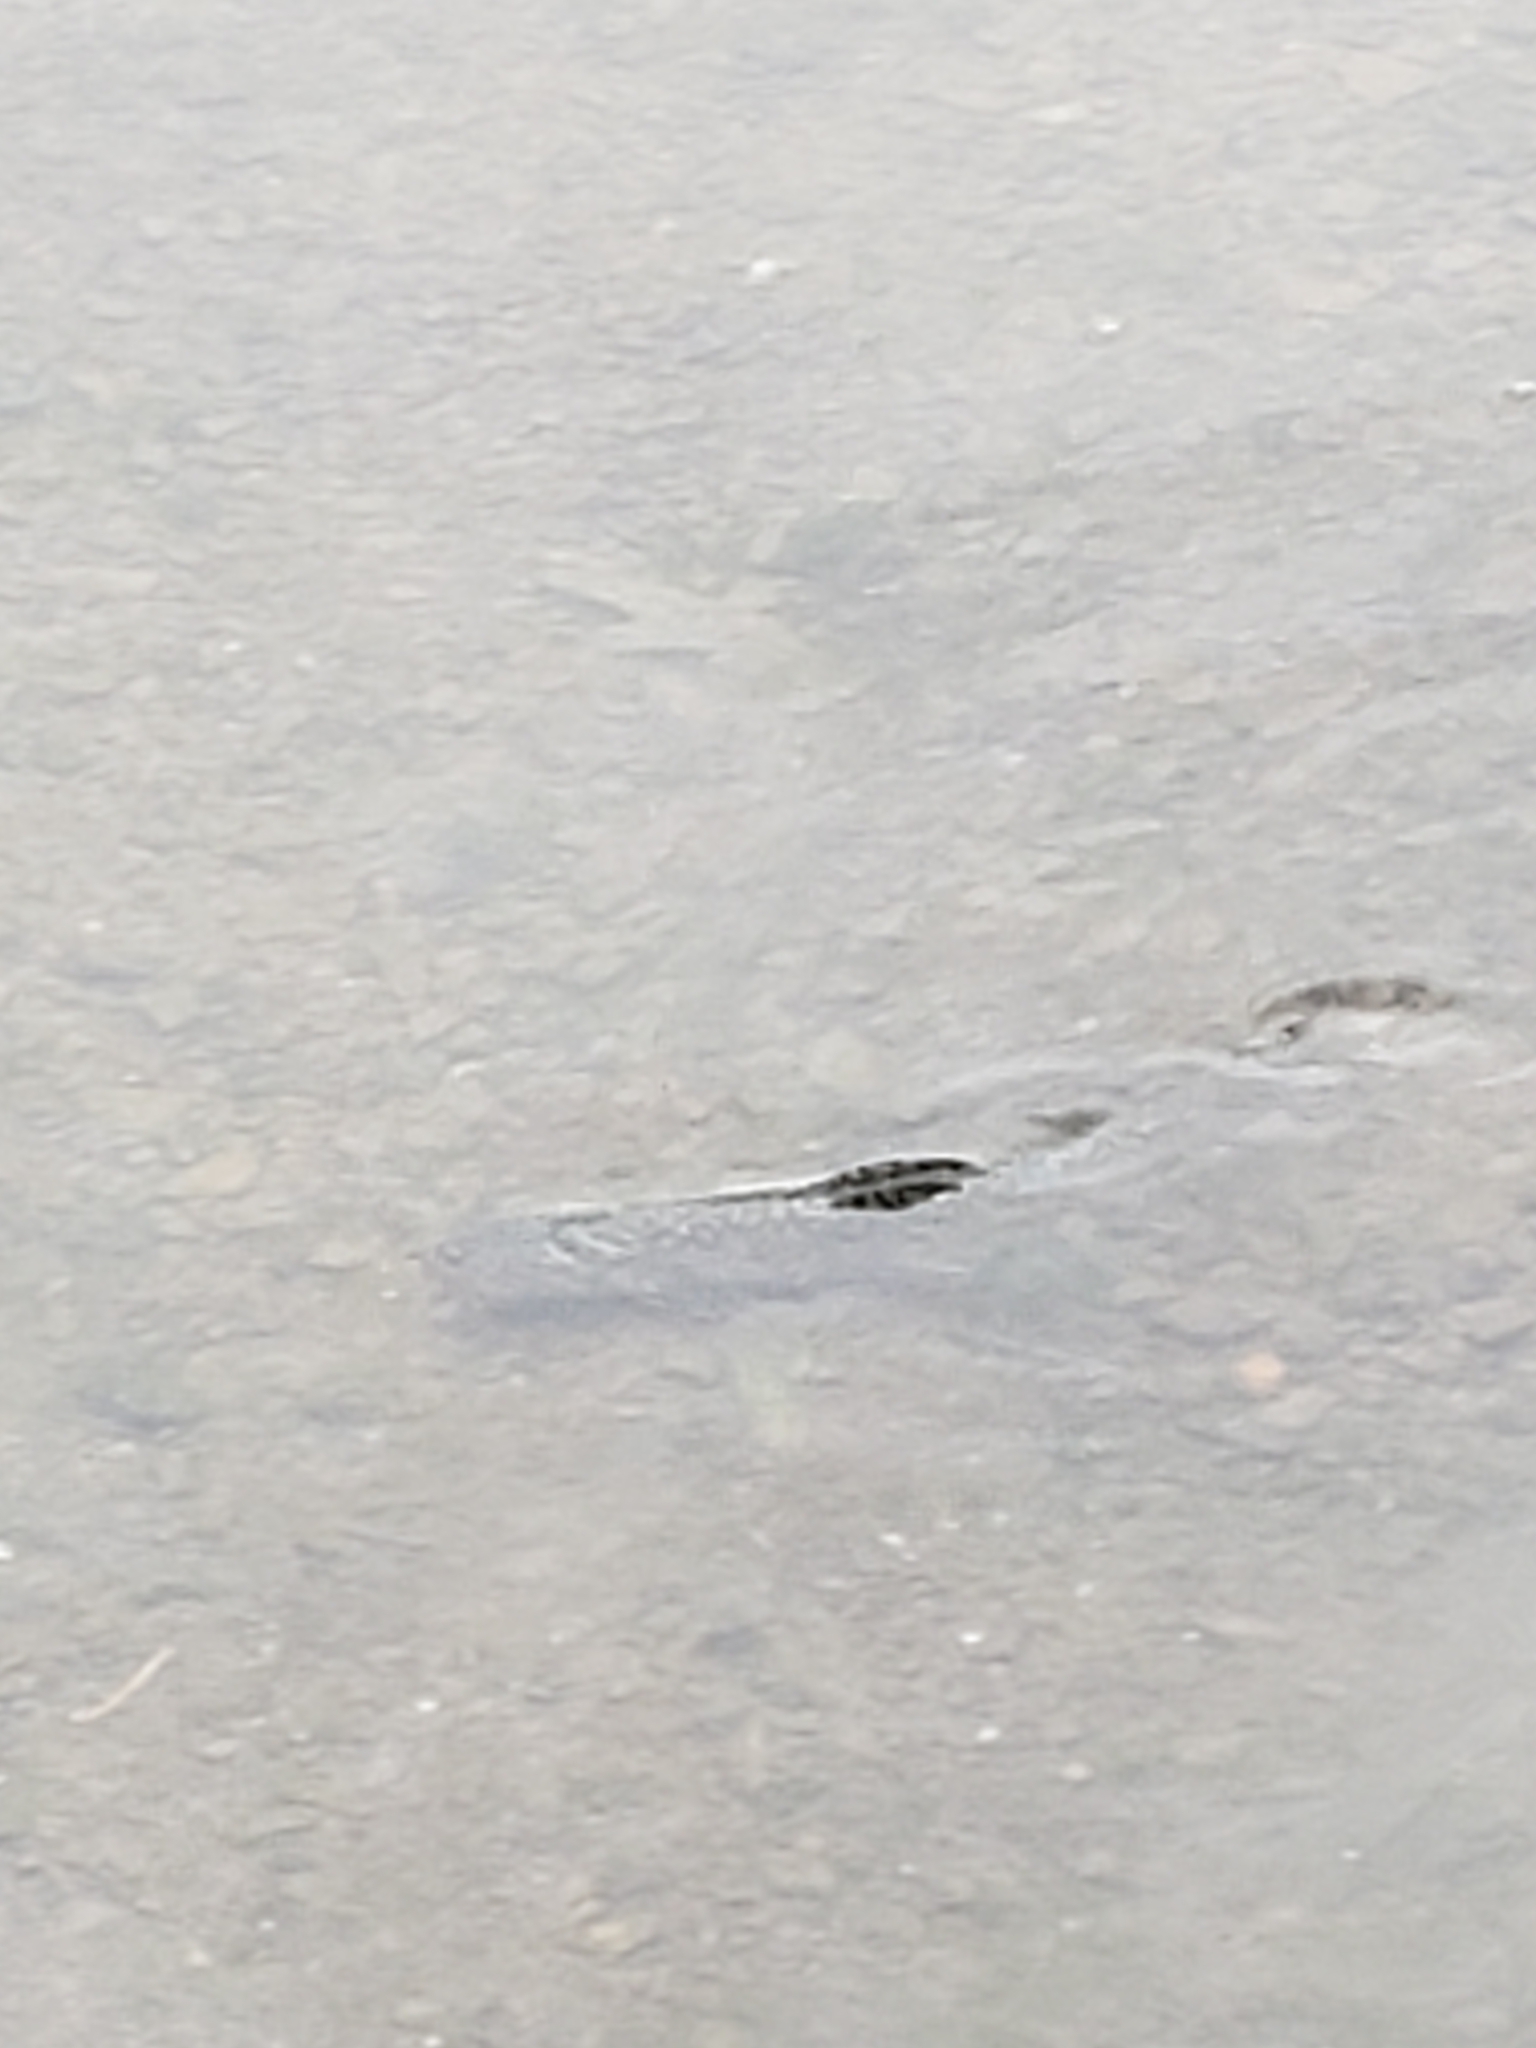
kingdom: Animalia
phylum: Chordata
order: Salmoniformes
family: Salmonidae
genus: Salvelinus
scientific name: Salvelinus fontinalis
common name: Brook trout
